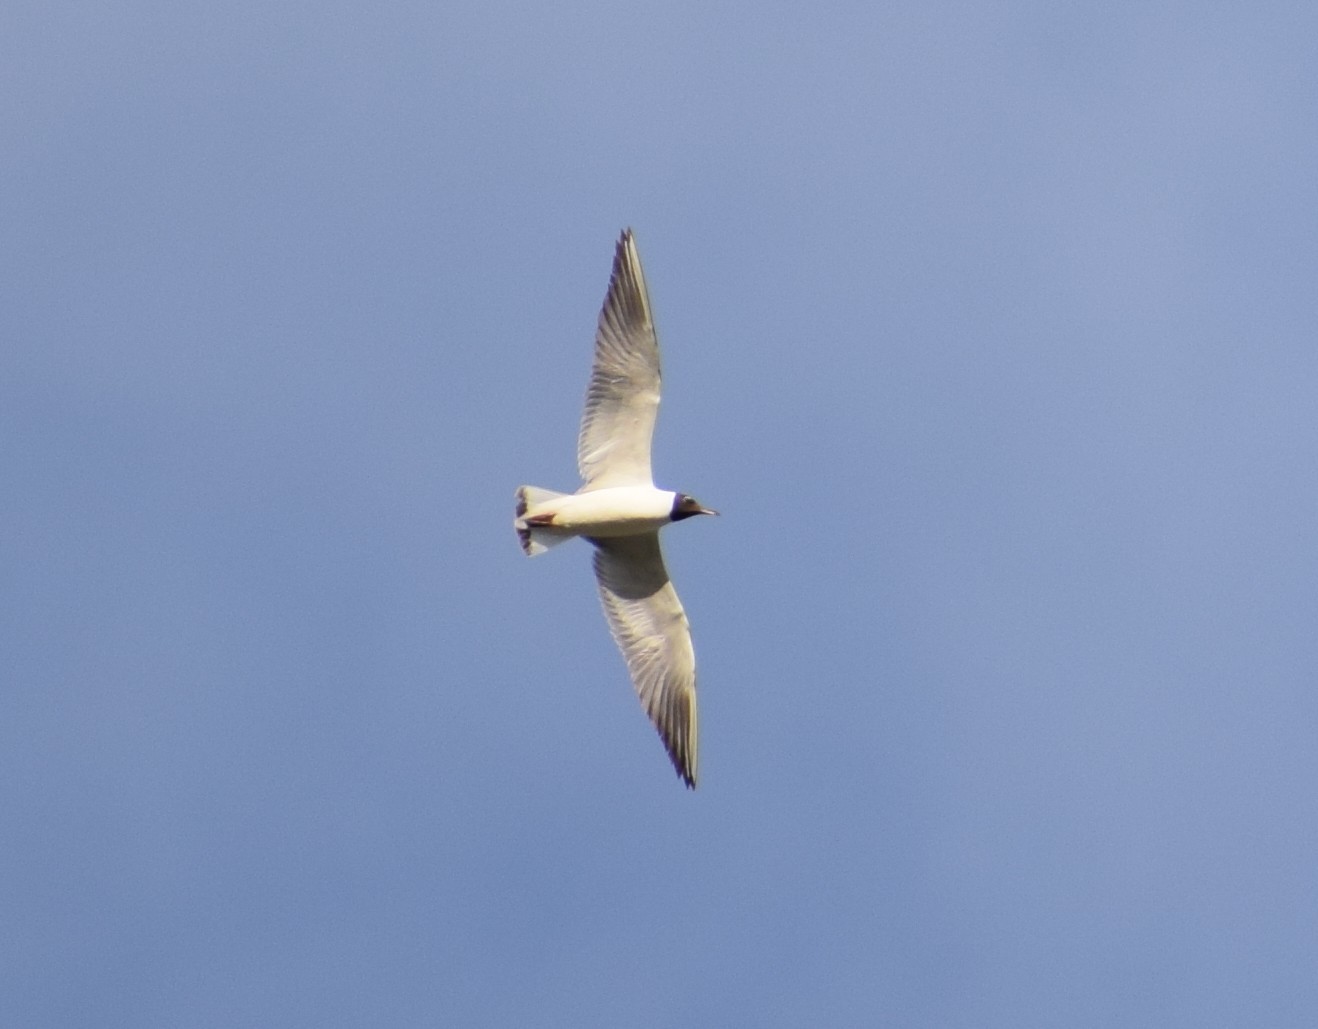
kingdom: Animalia
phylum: Chordata
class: Aves
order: Charadriiformes
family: Laridae
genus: Chroicocephalus
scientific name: Chroicocephalus ridibundus
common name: Black-headed gull
